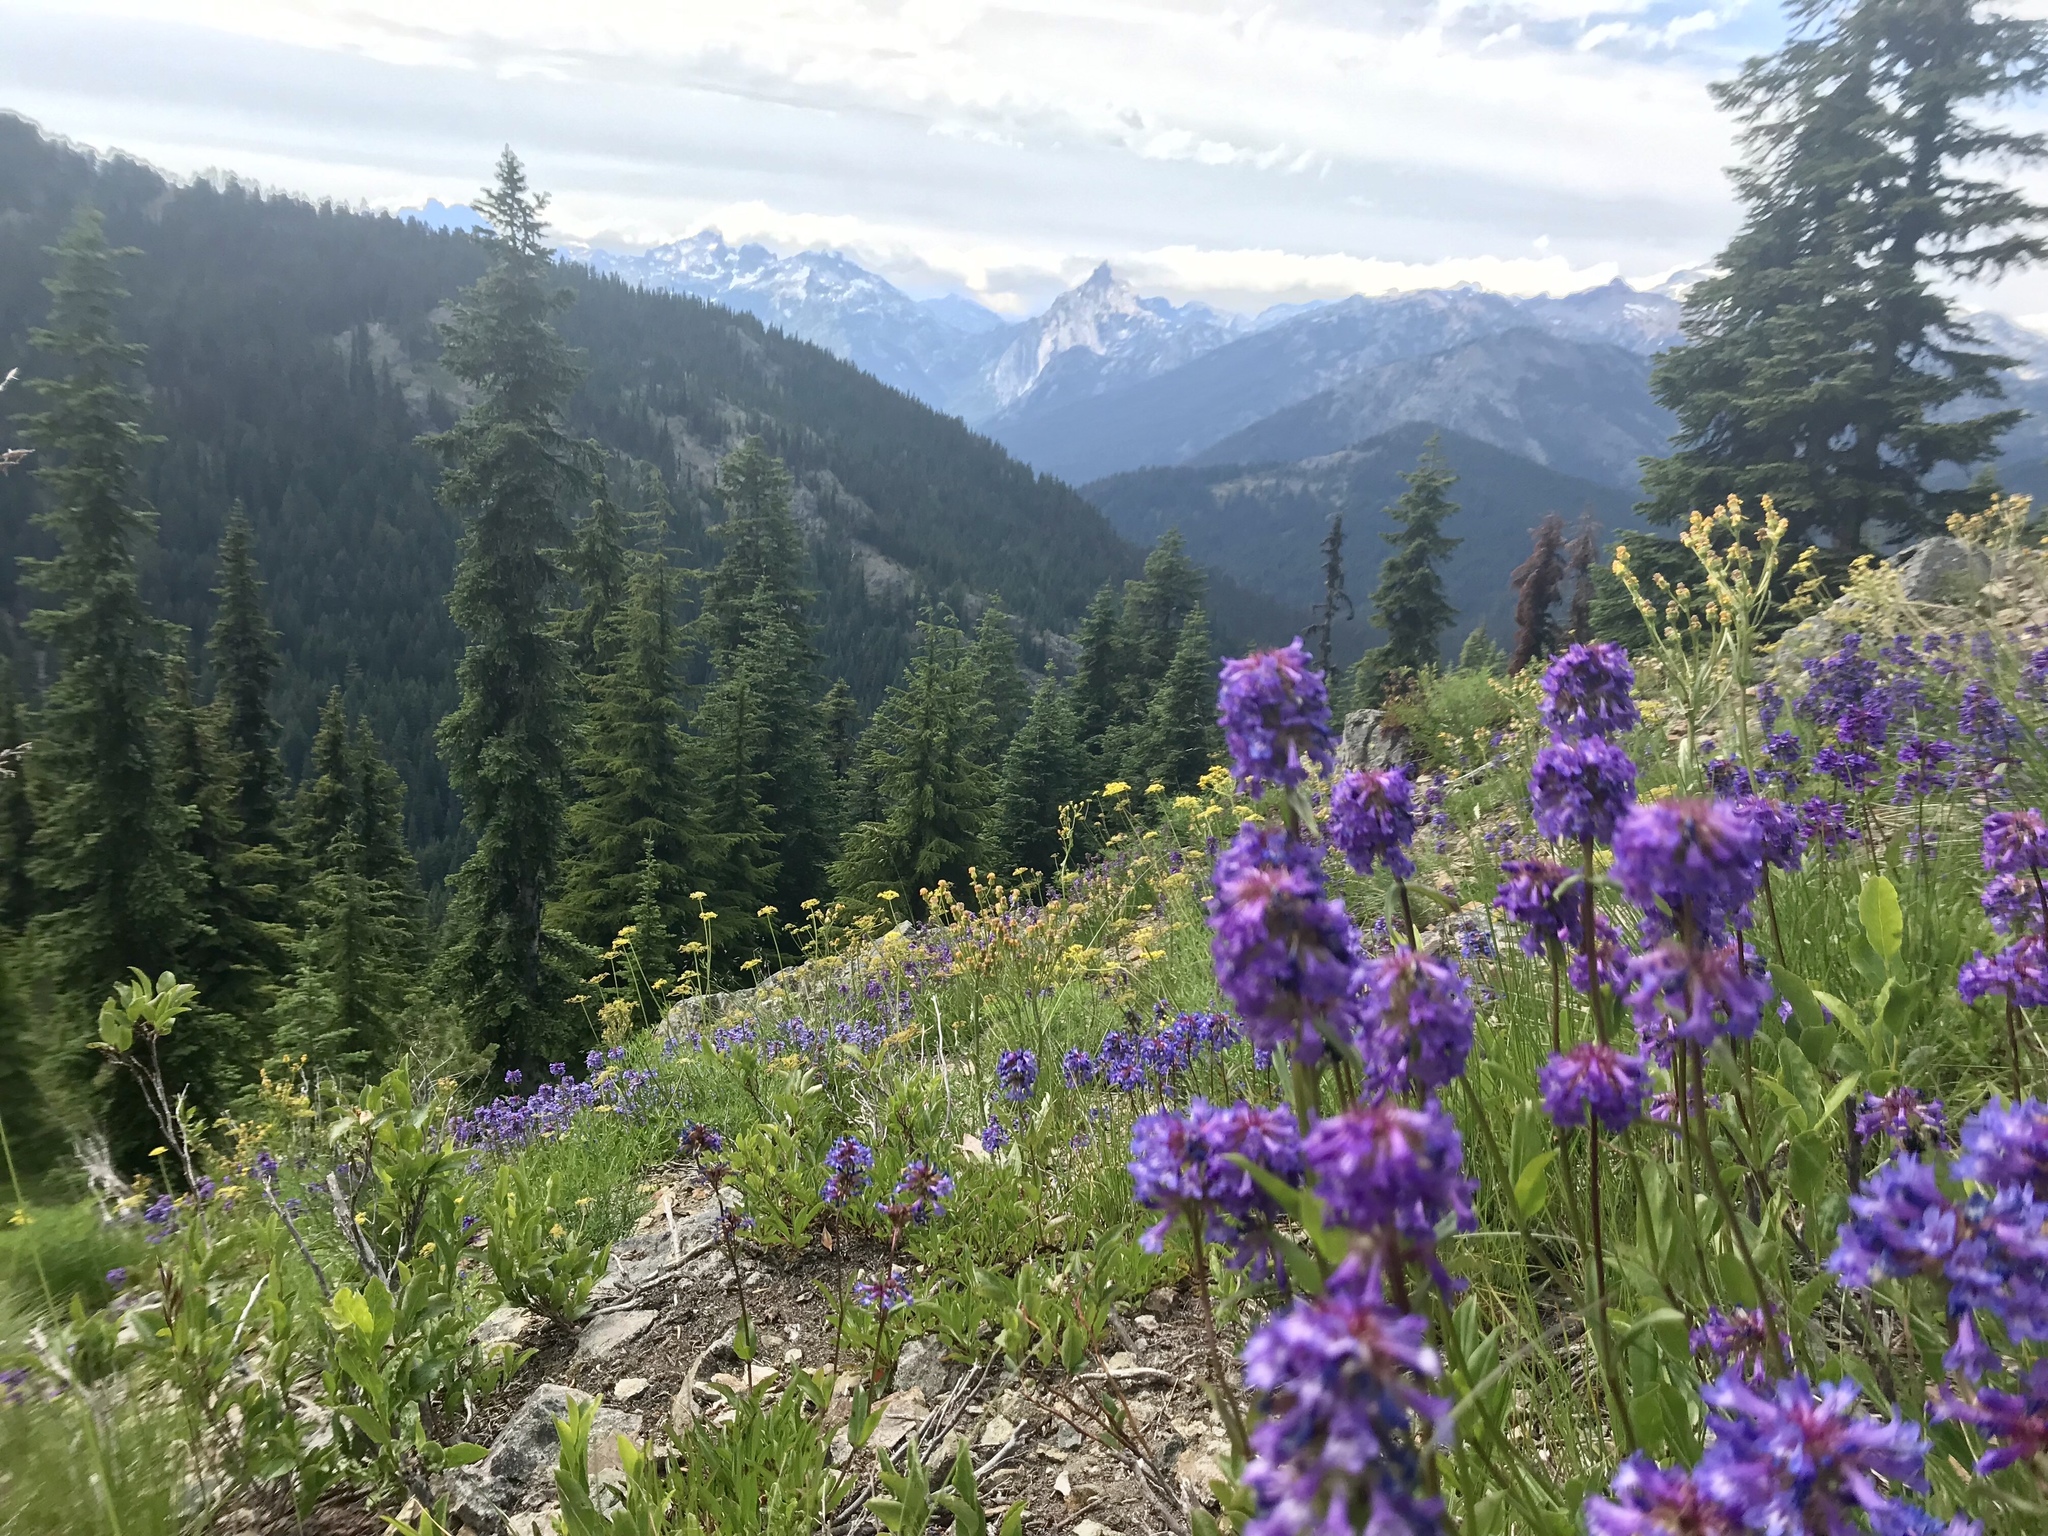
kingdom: Plantae
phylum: Tracheophyta
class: Magnoliopsida
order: Lamiales
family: Plantaginaceae
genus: Penstemon
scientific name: Penstemon procerus
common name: Small-flower penstemon
